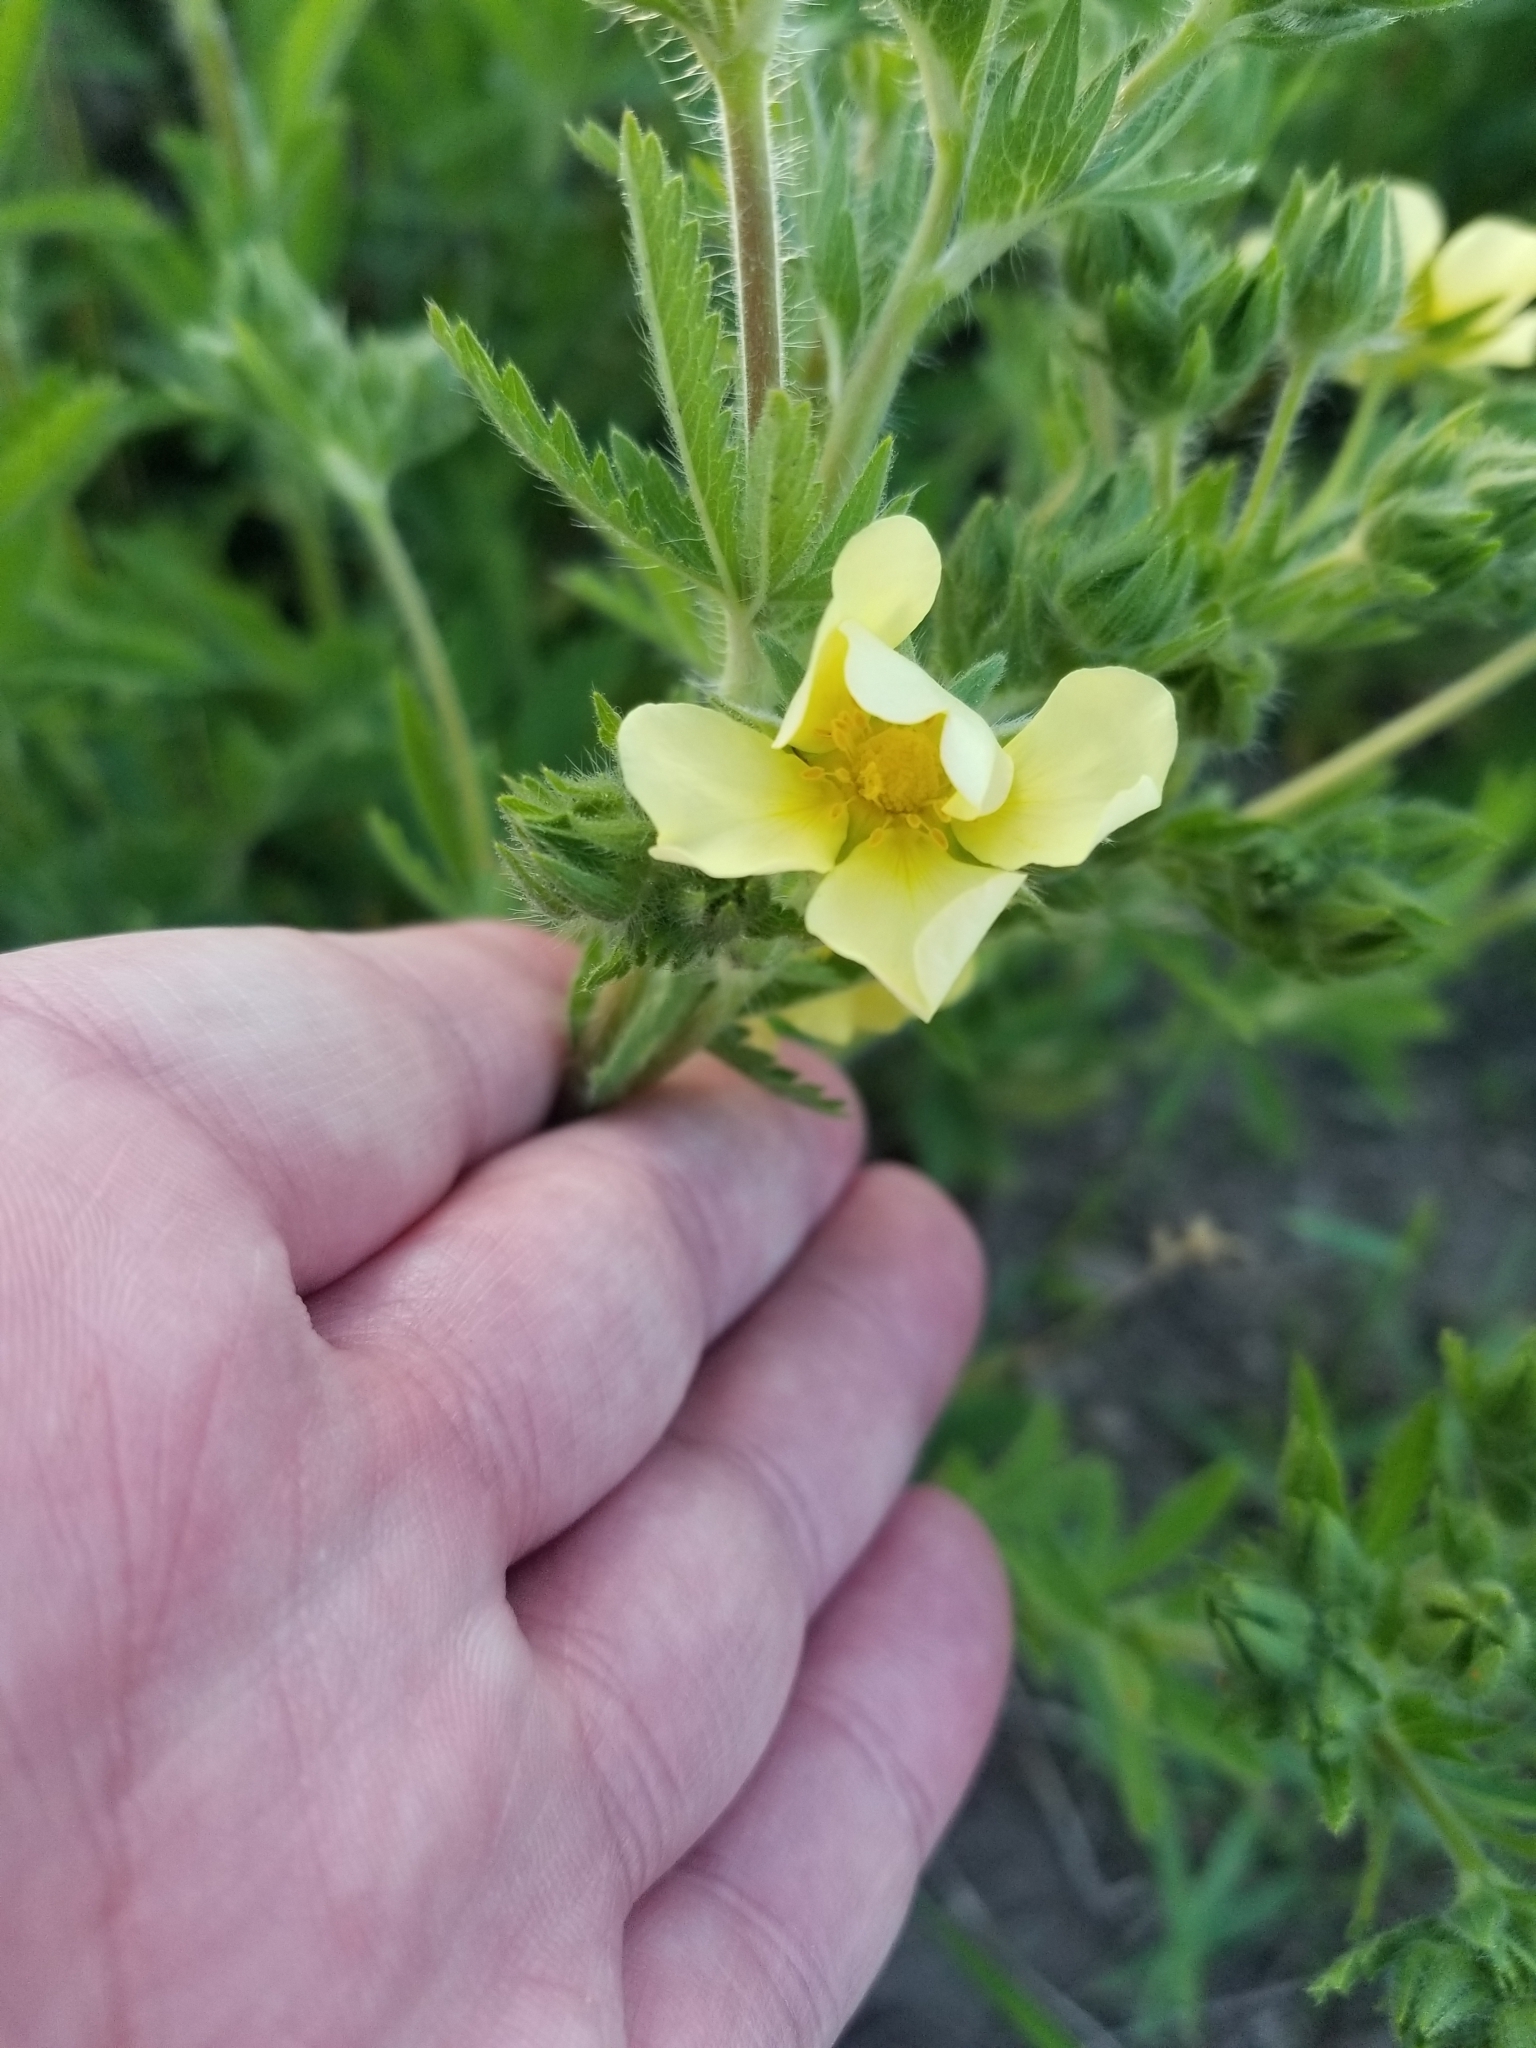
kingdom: Plantae
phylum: Tracheophyta
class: Magnoliopsida
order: Rosales
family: Rosaceae
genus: Potentilla
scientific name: Potentilla recta
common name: Sulphur cinquefoil
